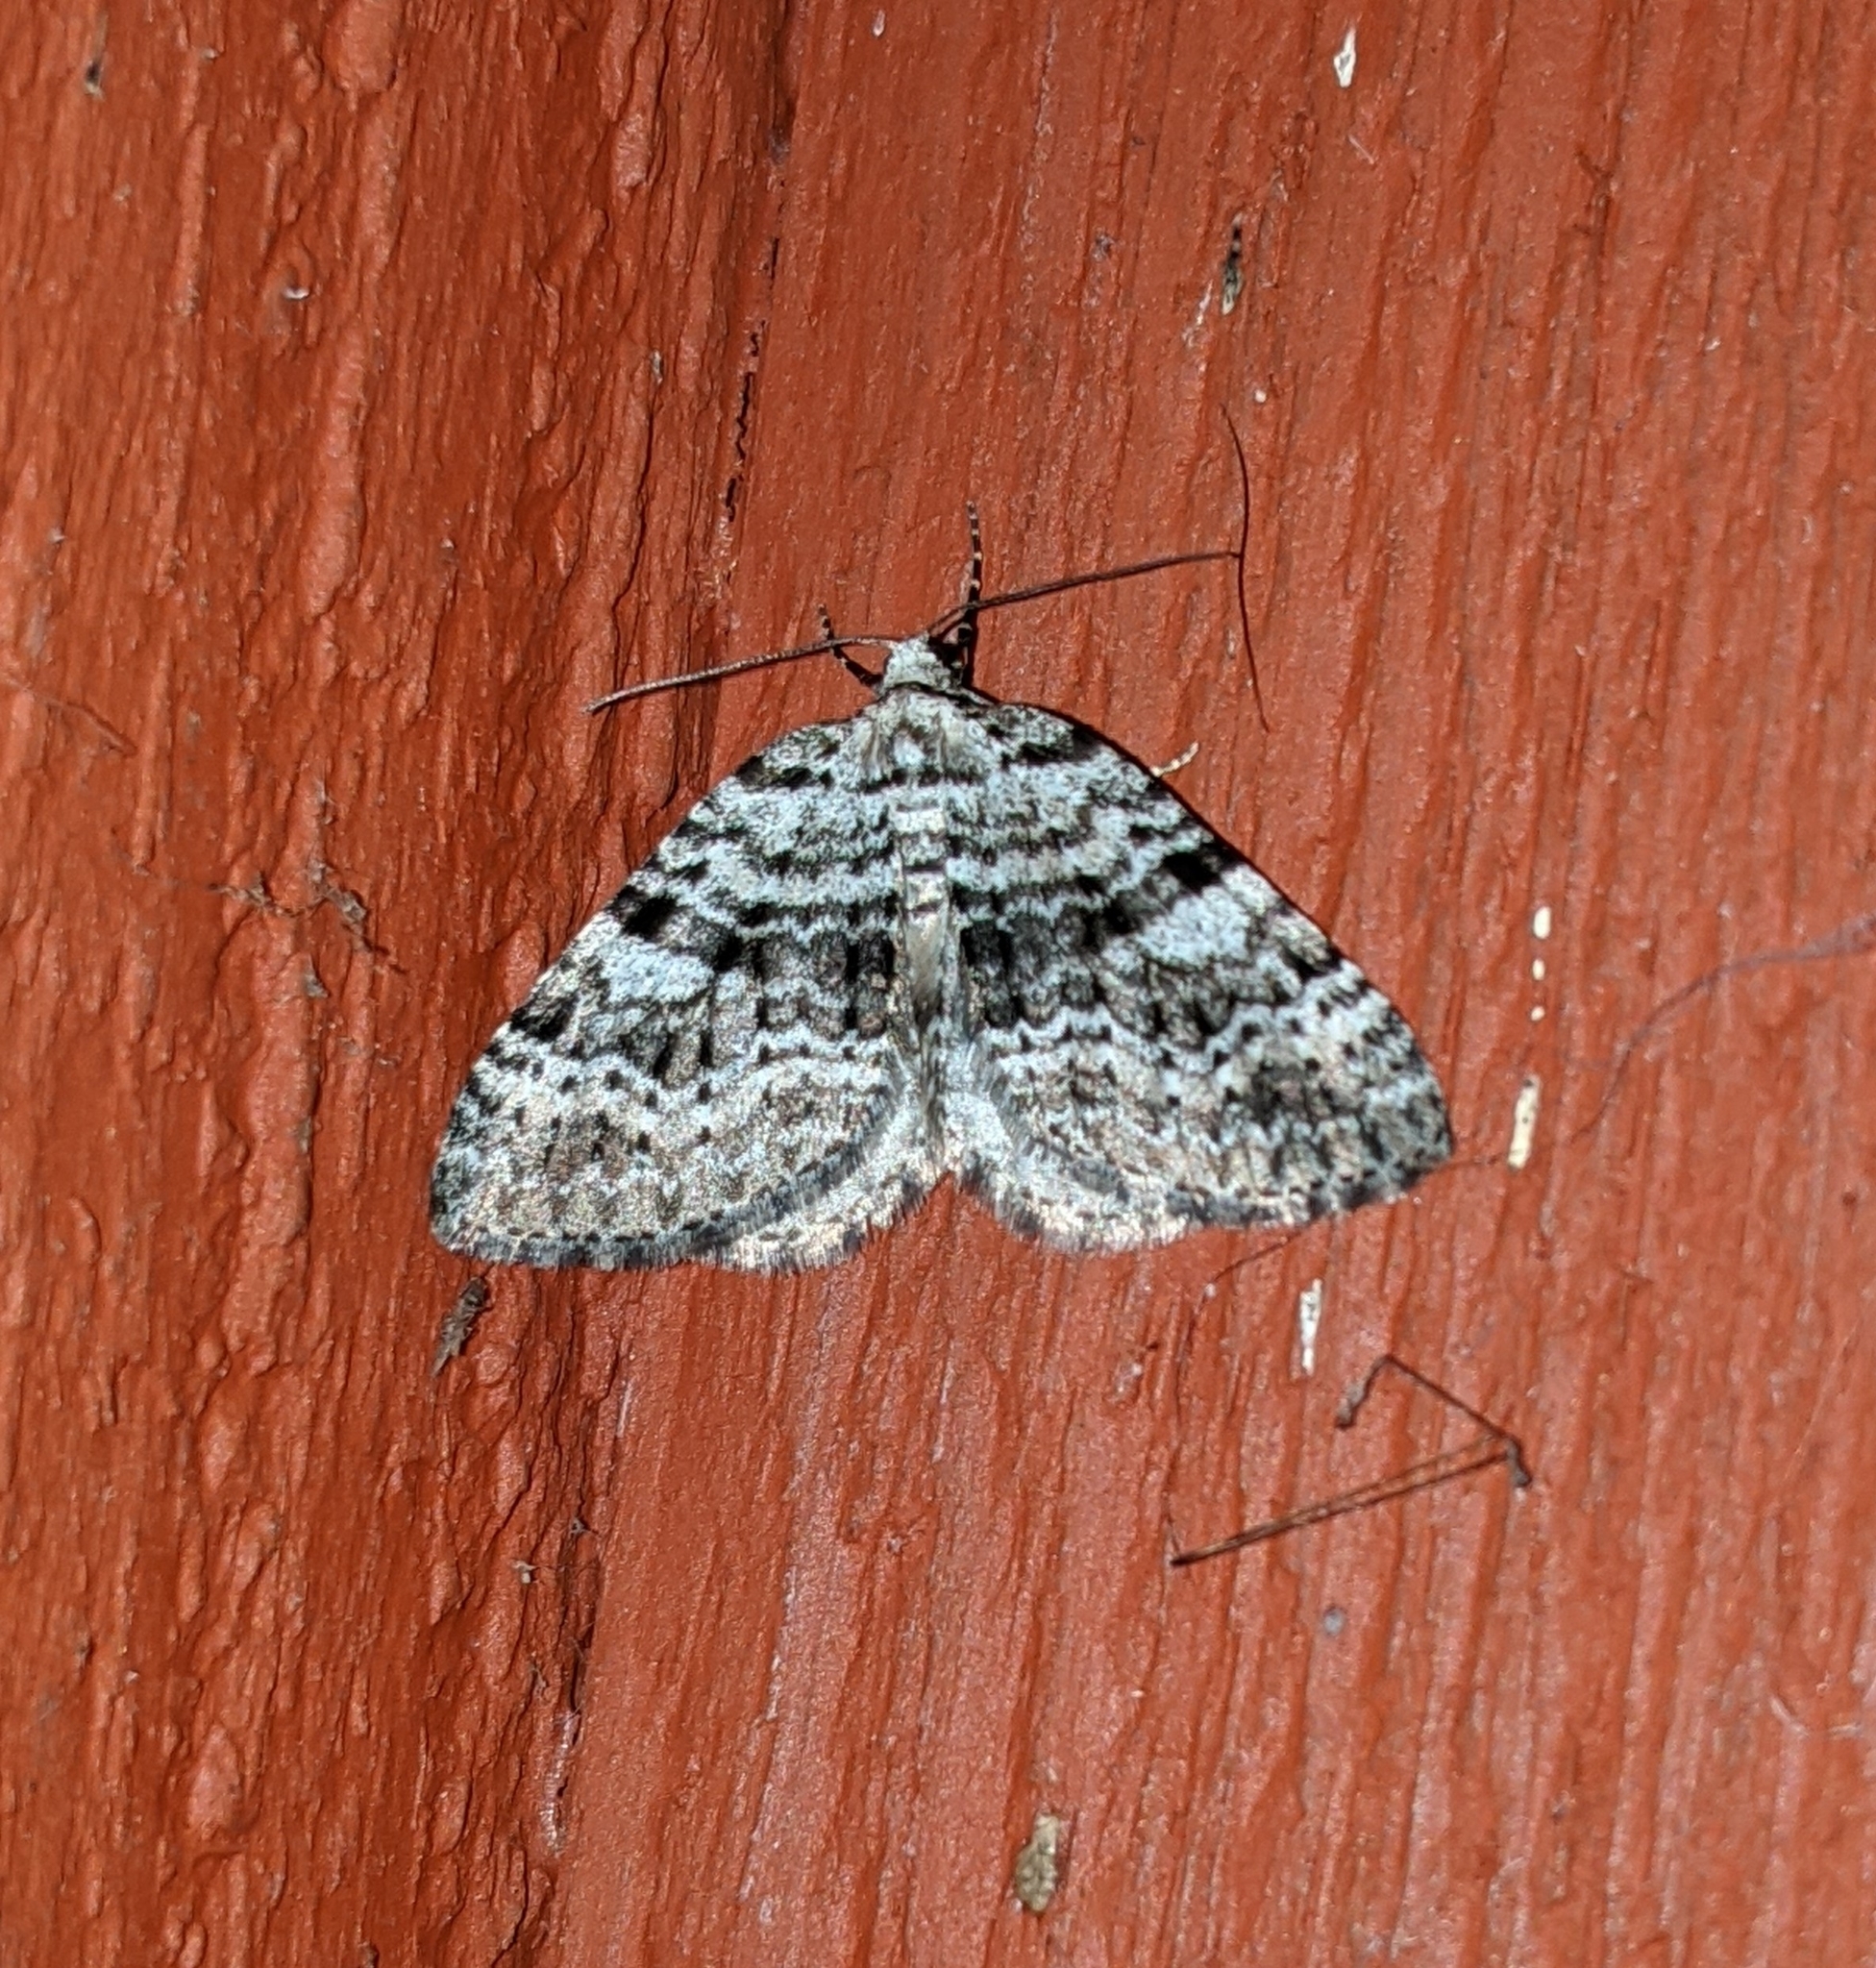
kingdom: Animalia
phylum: Arthropoda
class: Insecta
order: Lepidoptera
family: Geometridae
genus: Perizoma
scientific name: Perizoma curvilinea
